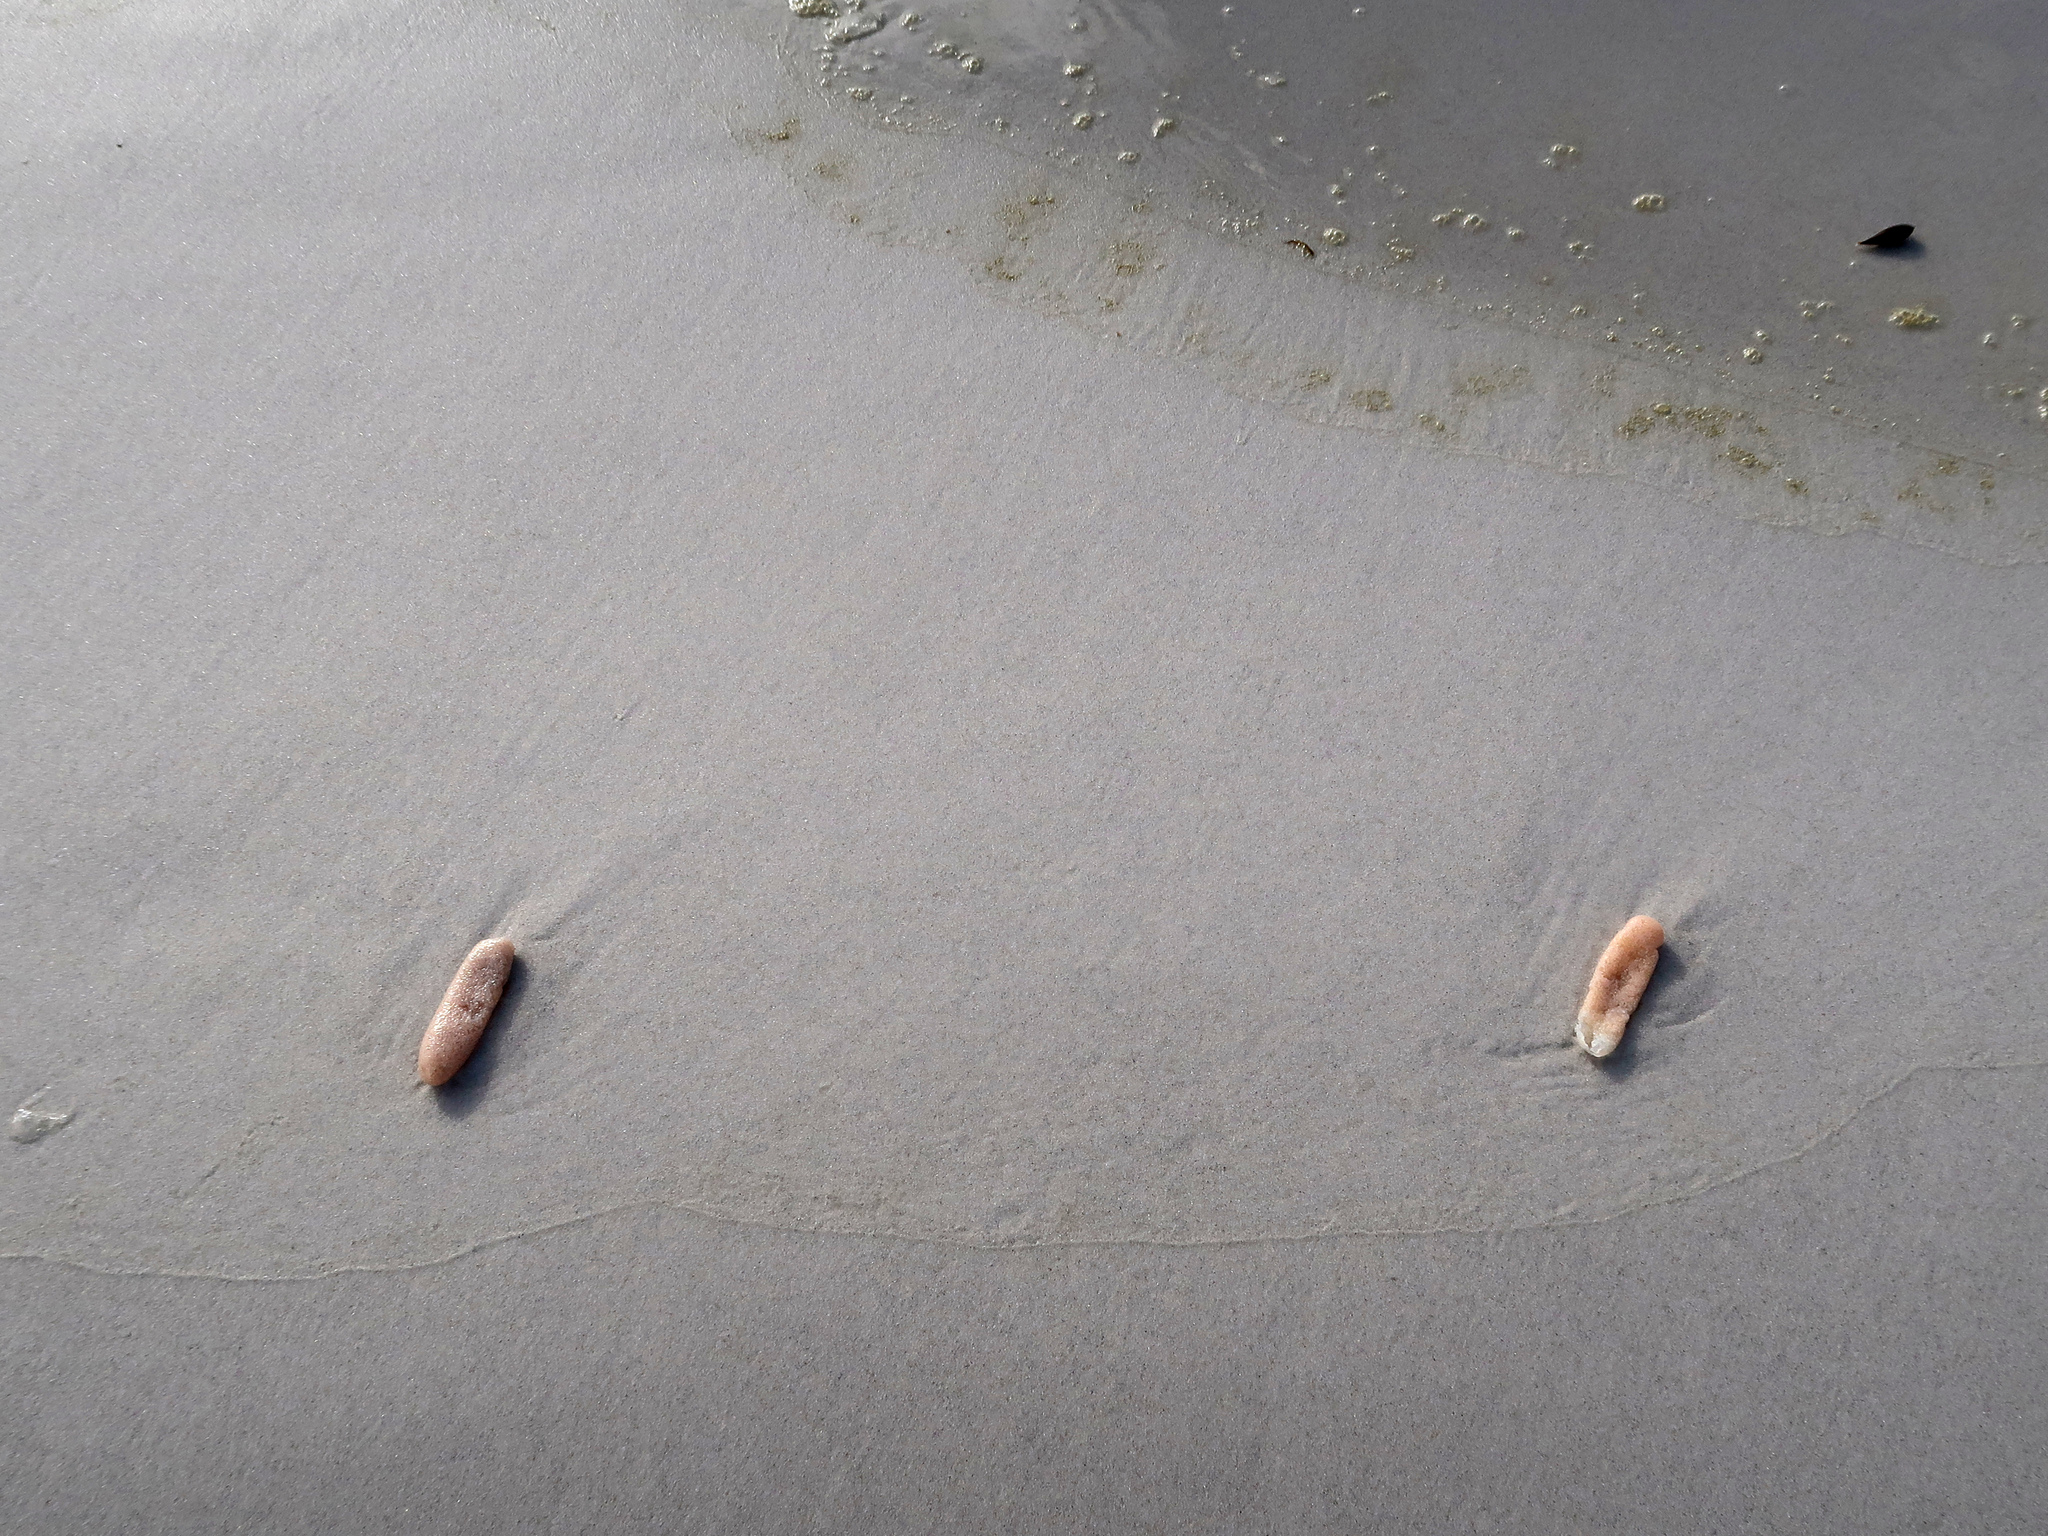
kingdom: Animalia
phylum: Chordata
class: Thaliacea
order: Pyrosomatida
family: Pyrosomatidae
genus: Pyrosoma
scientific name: Pyrosoma atlanticum
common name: Atlantic pyrosomes
